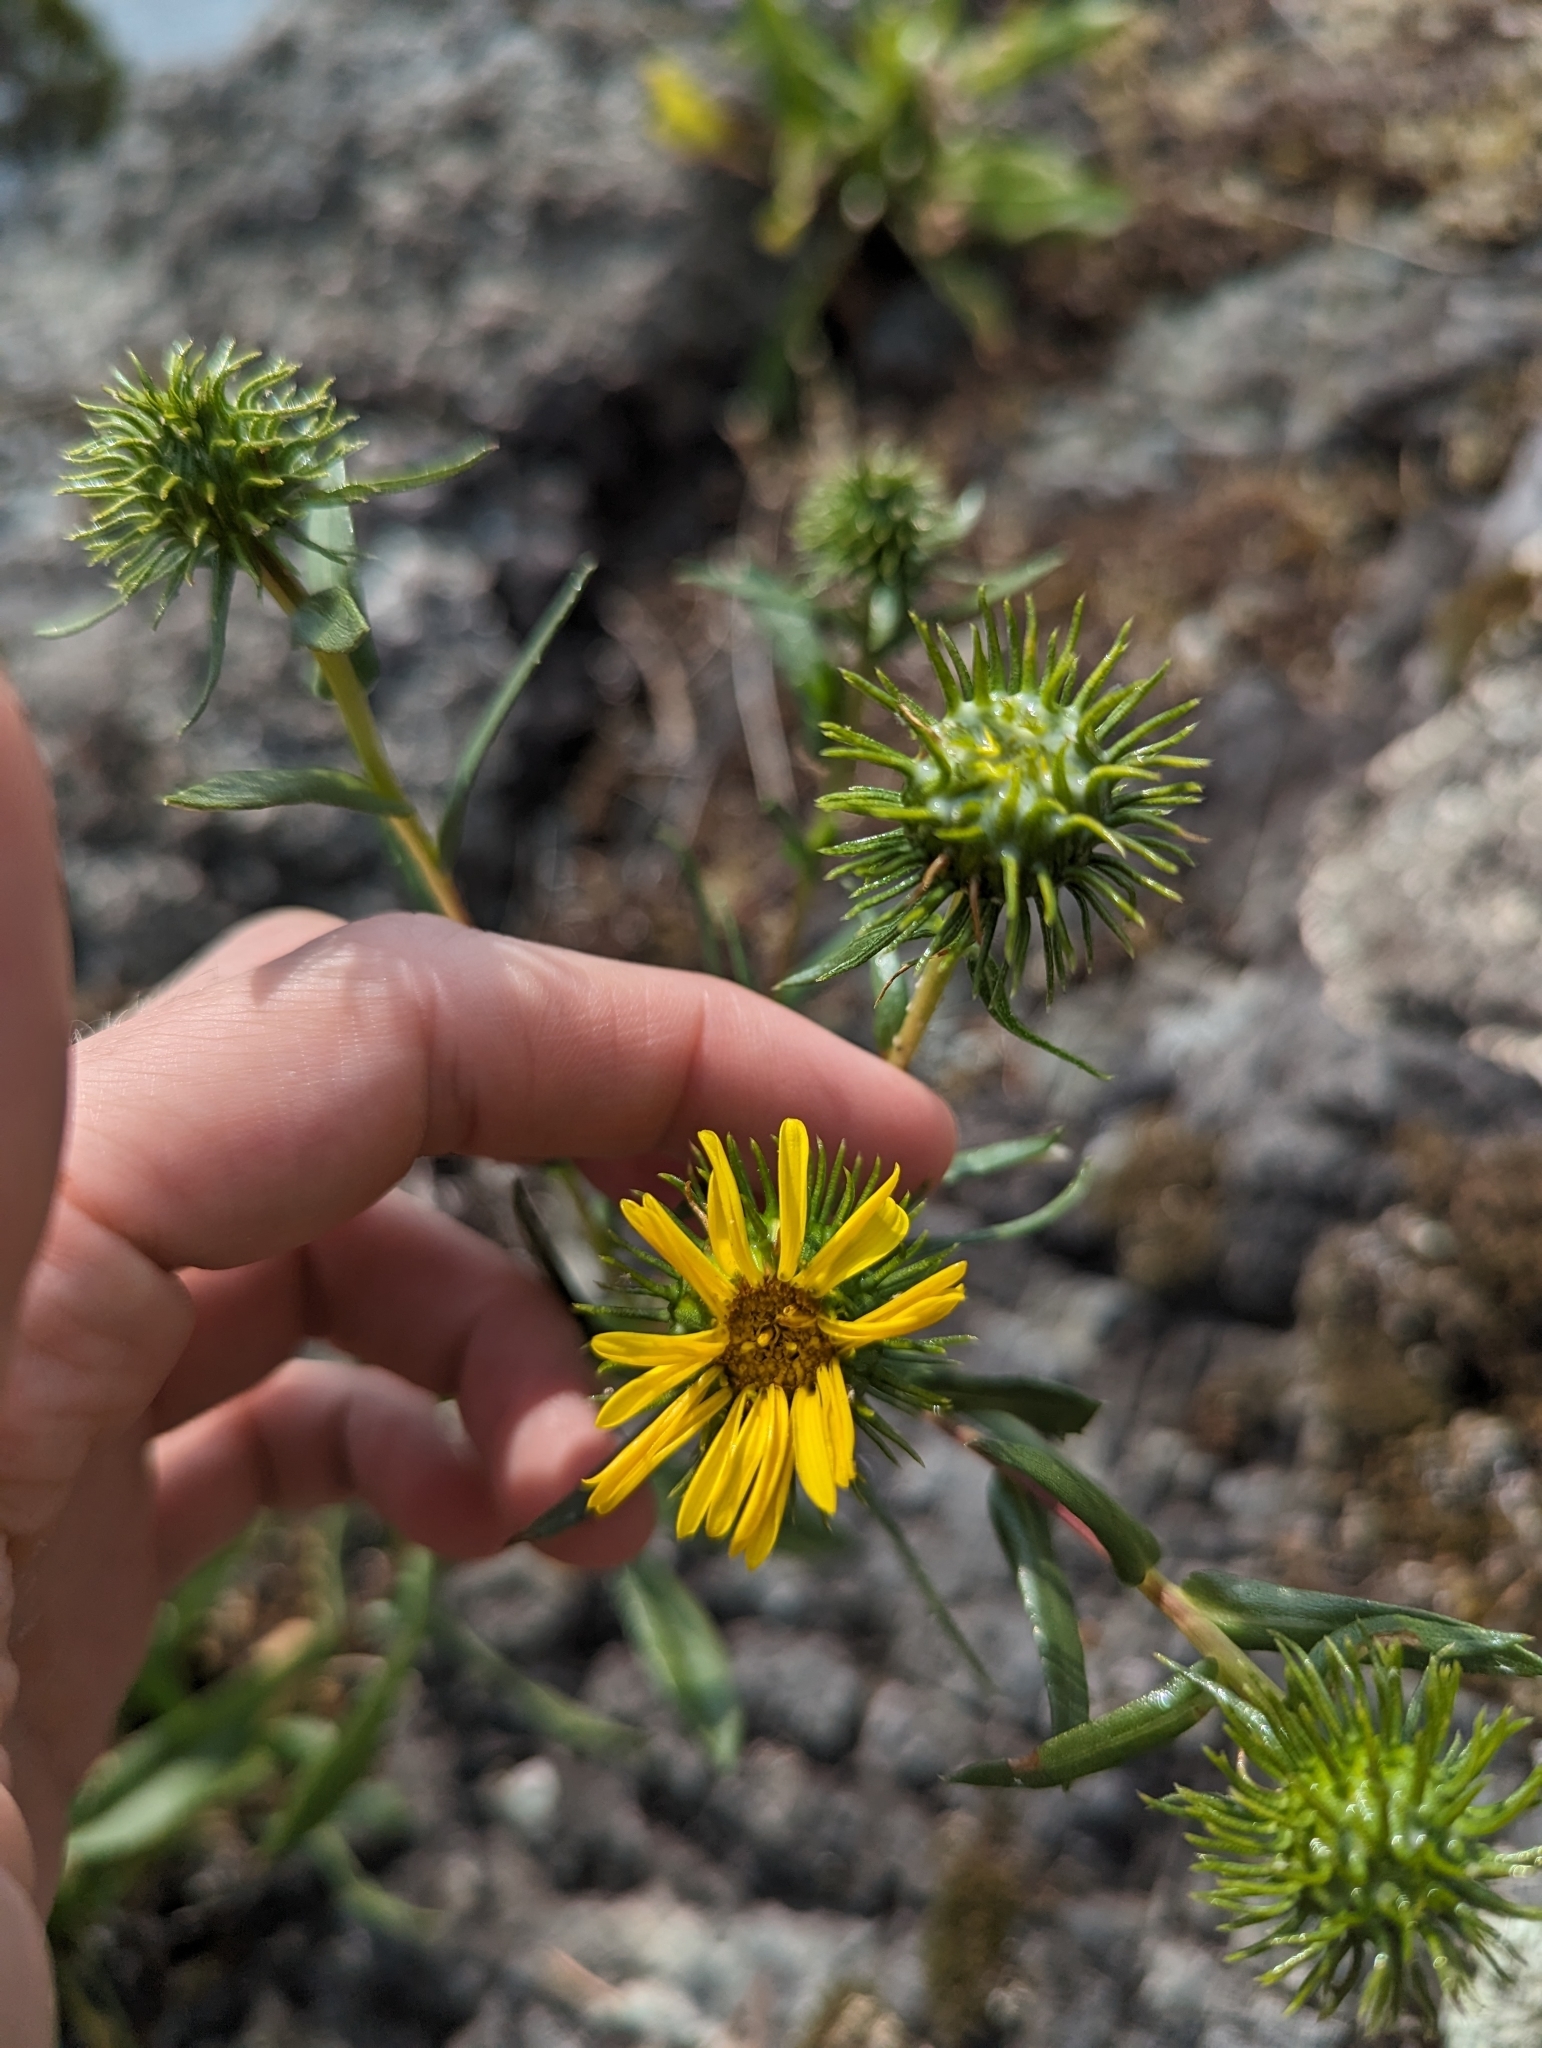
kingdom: Plantae
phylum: Tracheophyta
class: Magnoliopsida
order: Asterales
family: Asteraceae
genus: Grindelia
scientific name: Grindelia hirsutula
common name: Hairy gumweed
